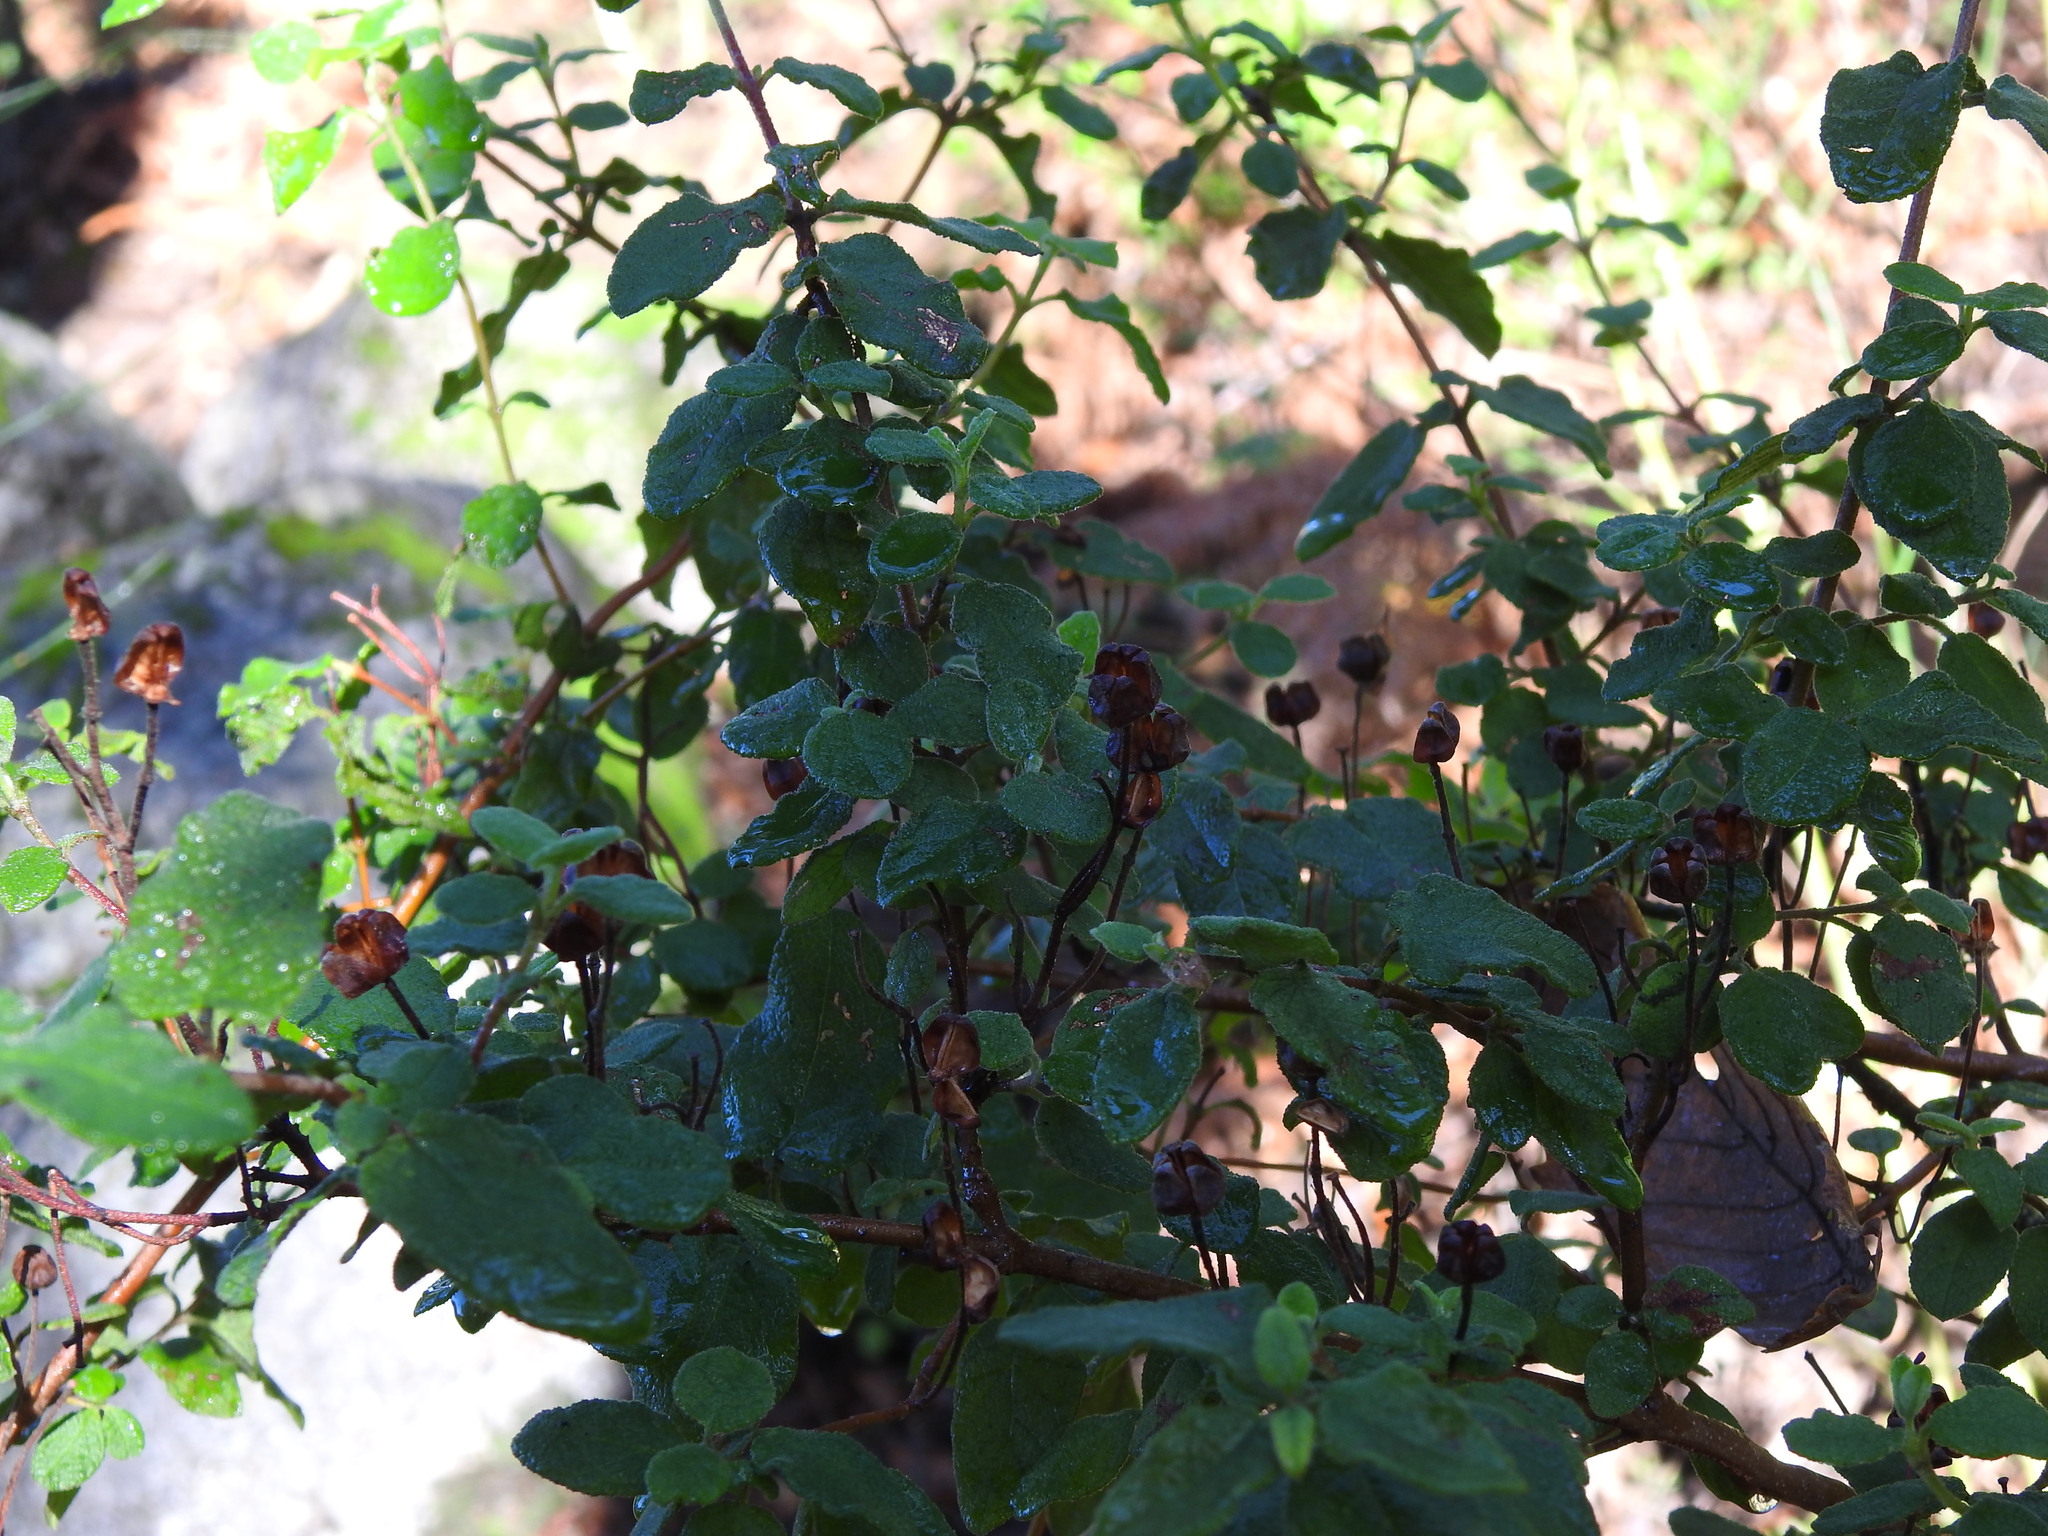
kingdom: Plantae
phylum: Tracheophyta
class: Magnoliopsida
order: Malvales
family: Cistaceae
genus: Cistus
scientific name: Cistus salviifolius
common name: Salvia cistus
